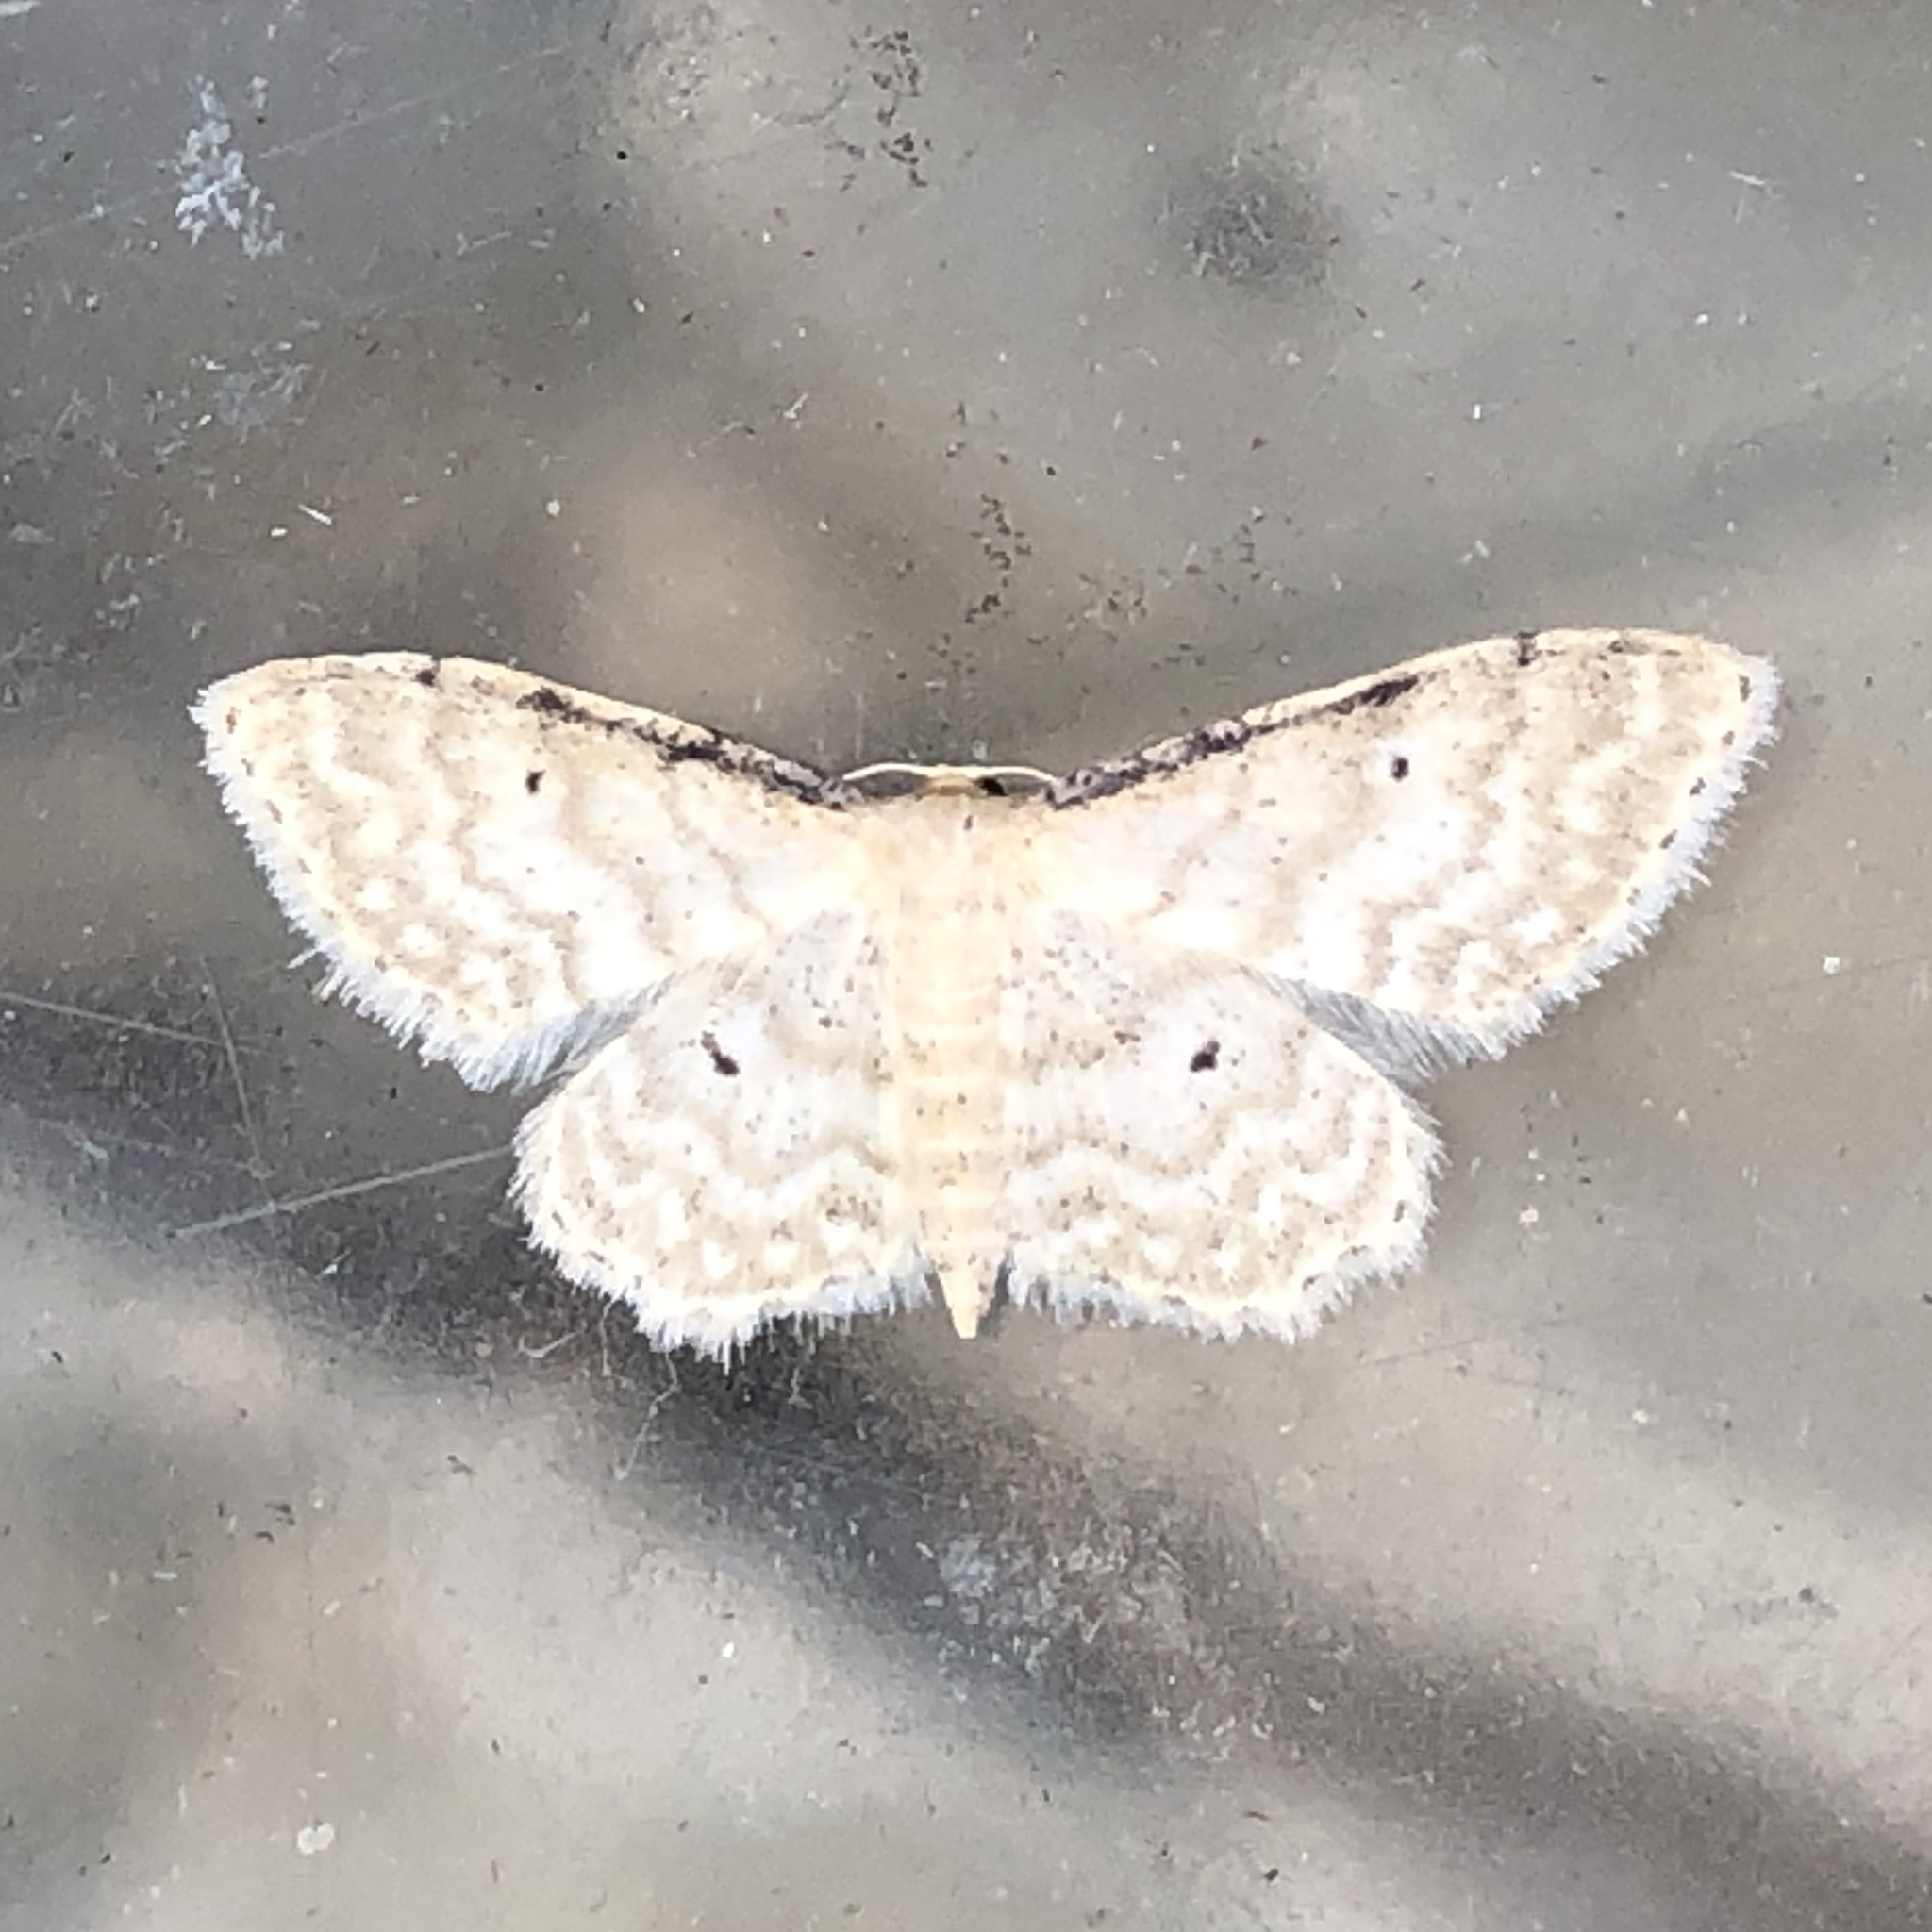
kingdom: Animalia
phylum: Arthropoda
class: Insecta
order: Lepidoptera
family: Geometridae
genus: Idaea
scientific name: Idaea fuscovenosa
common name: Dwarf cream wave
